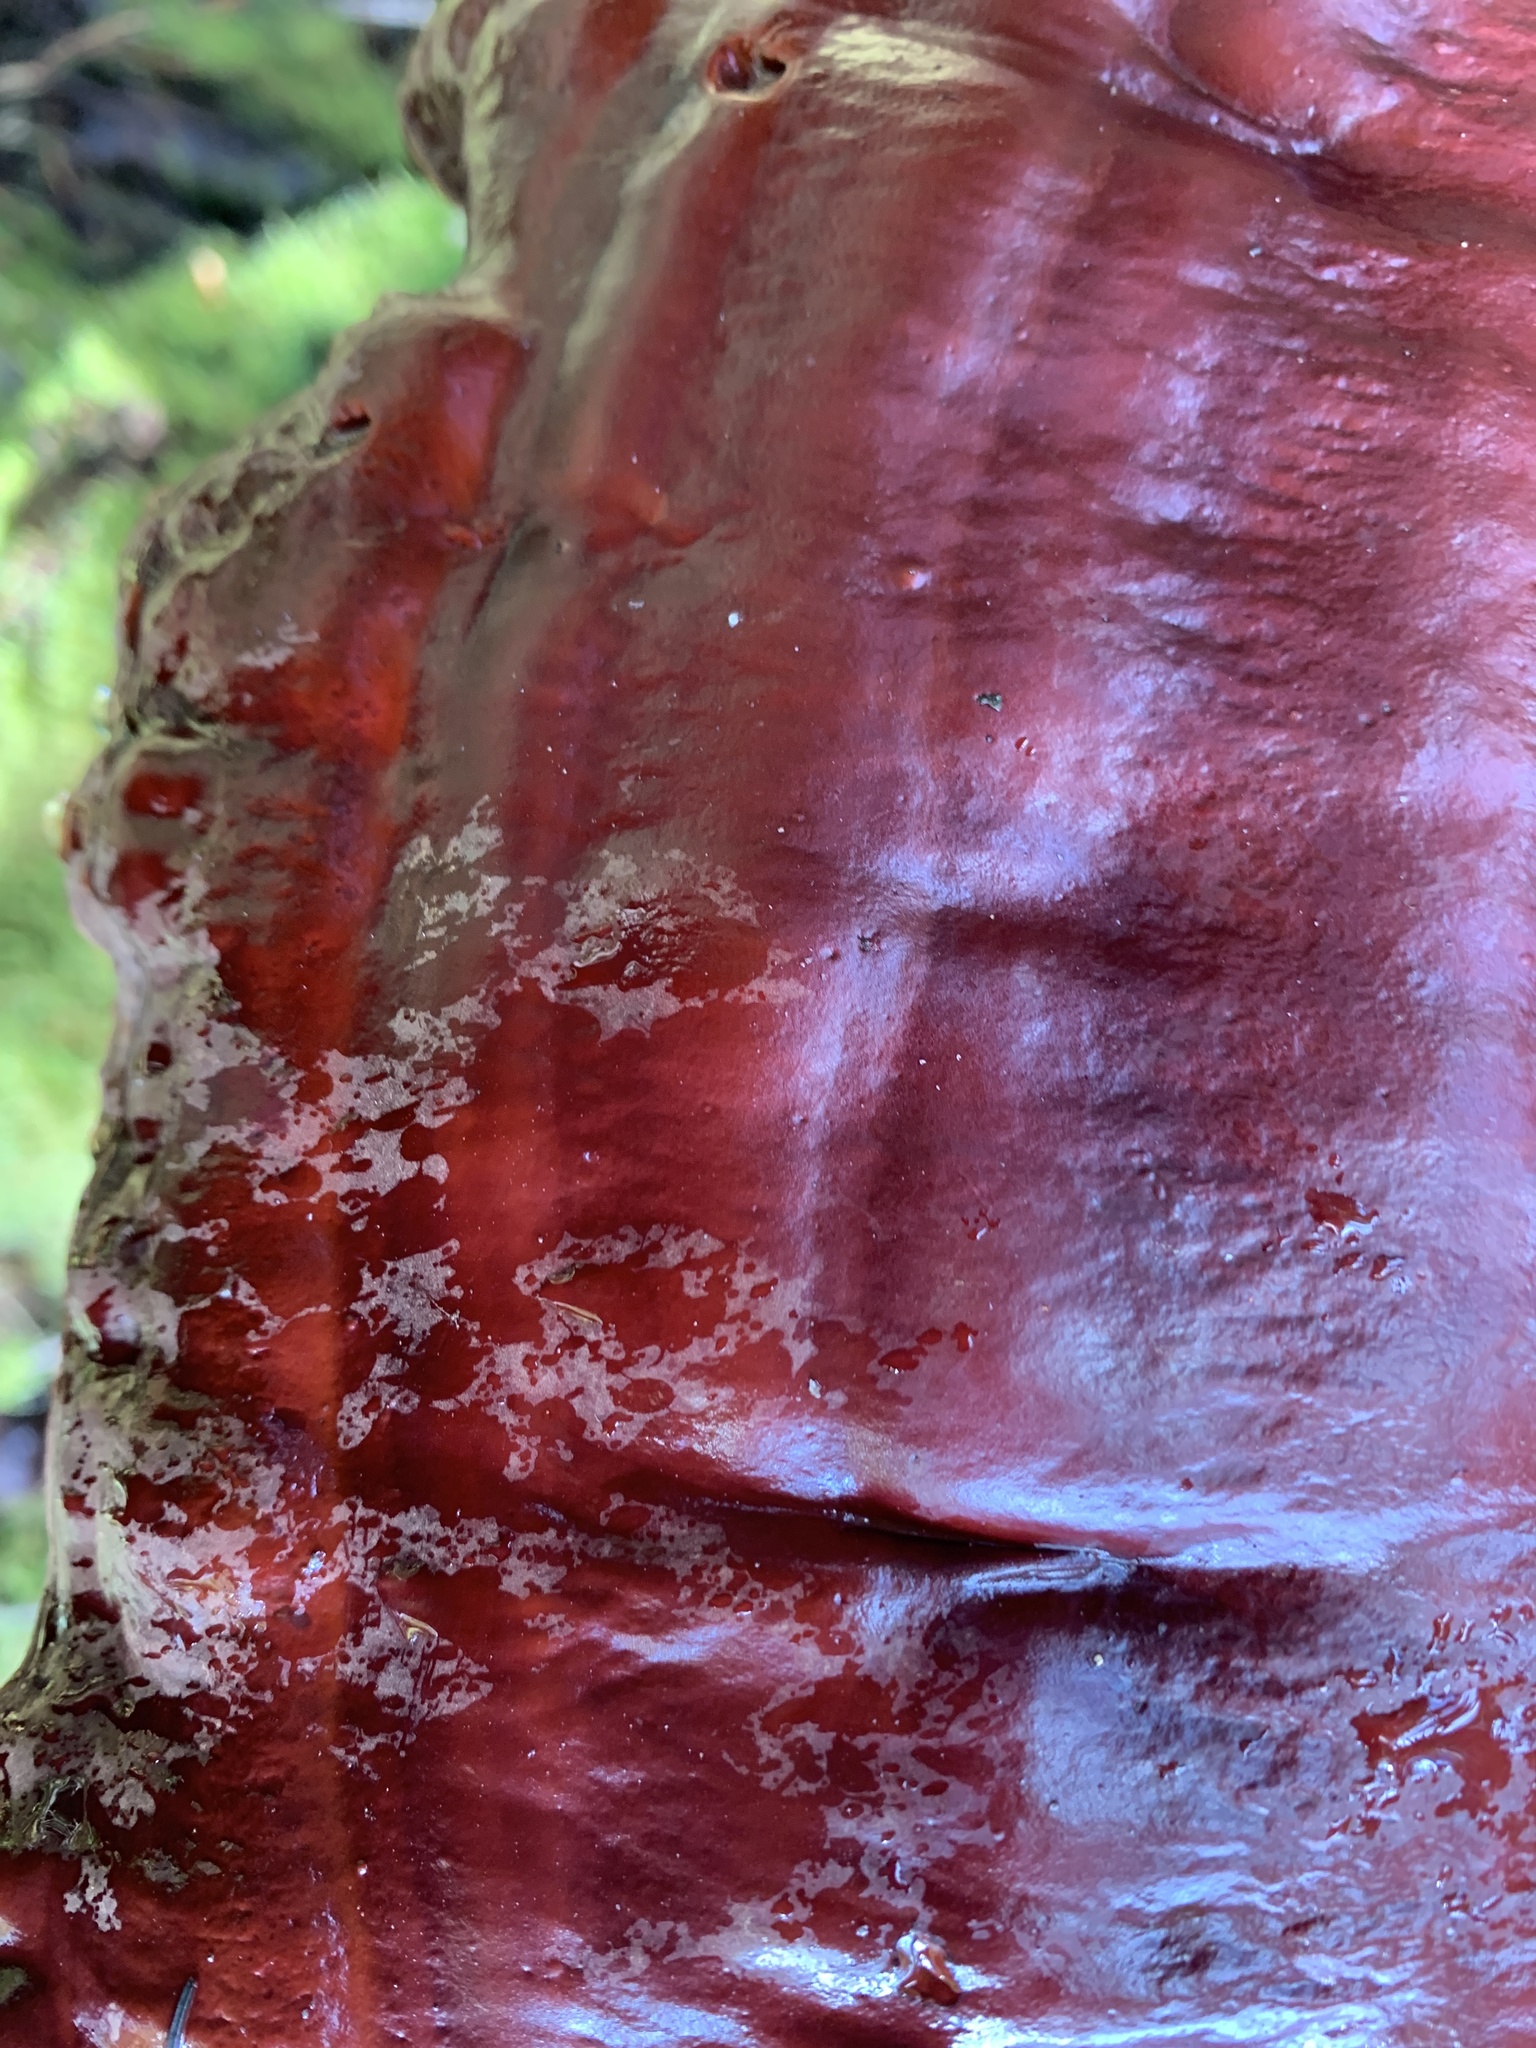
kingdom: Fungi
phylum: Basidiomycota
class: Agaricomycetes
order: Polyporales
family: Polyporaceae
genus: Ganoderma
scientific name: Ganoderma oregonense
